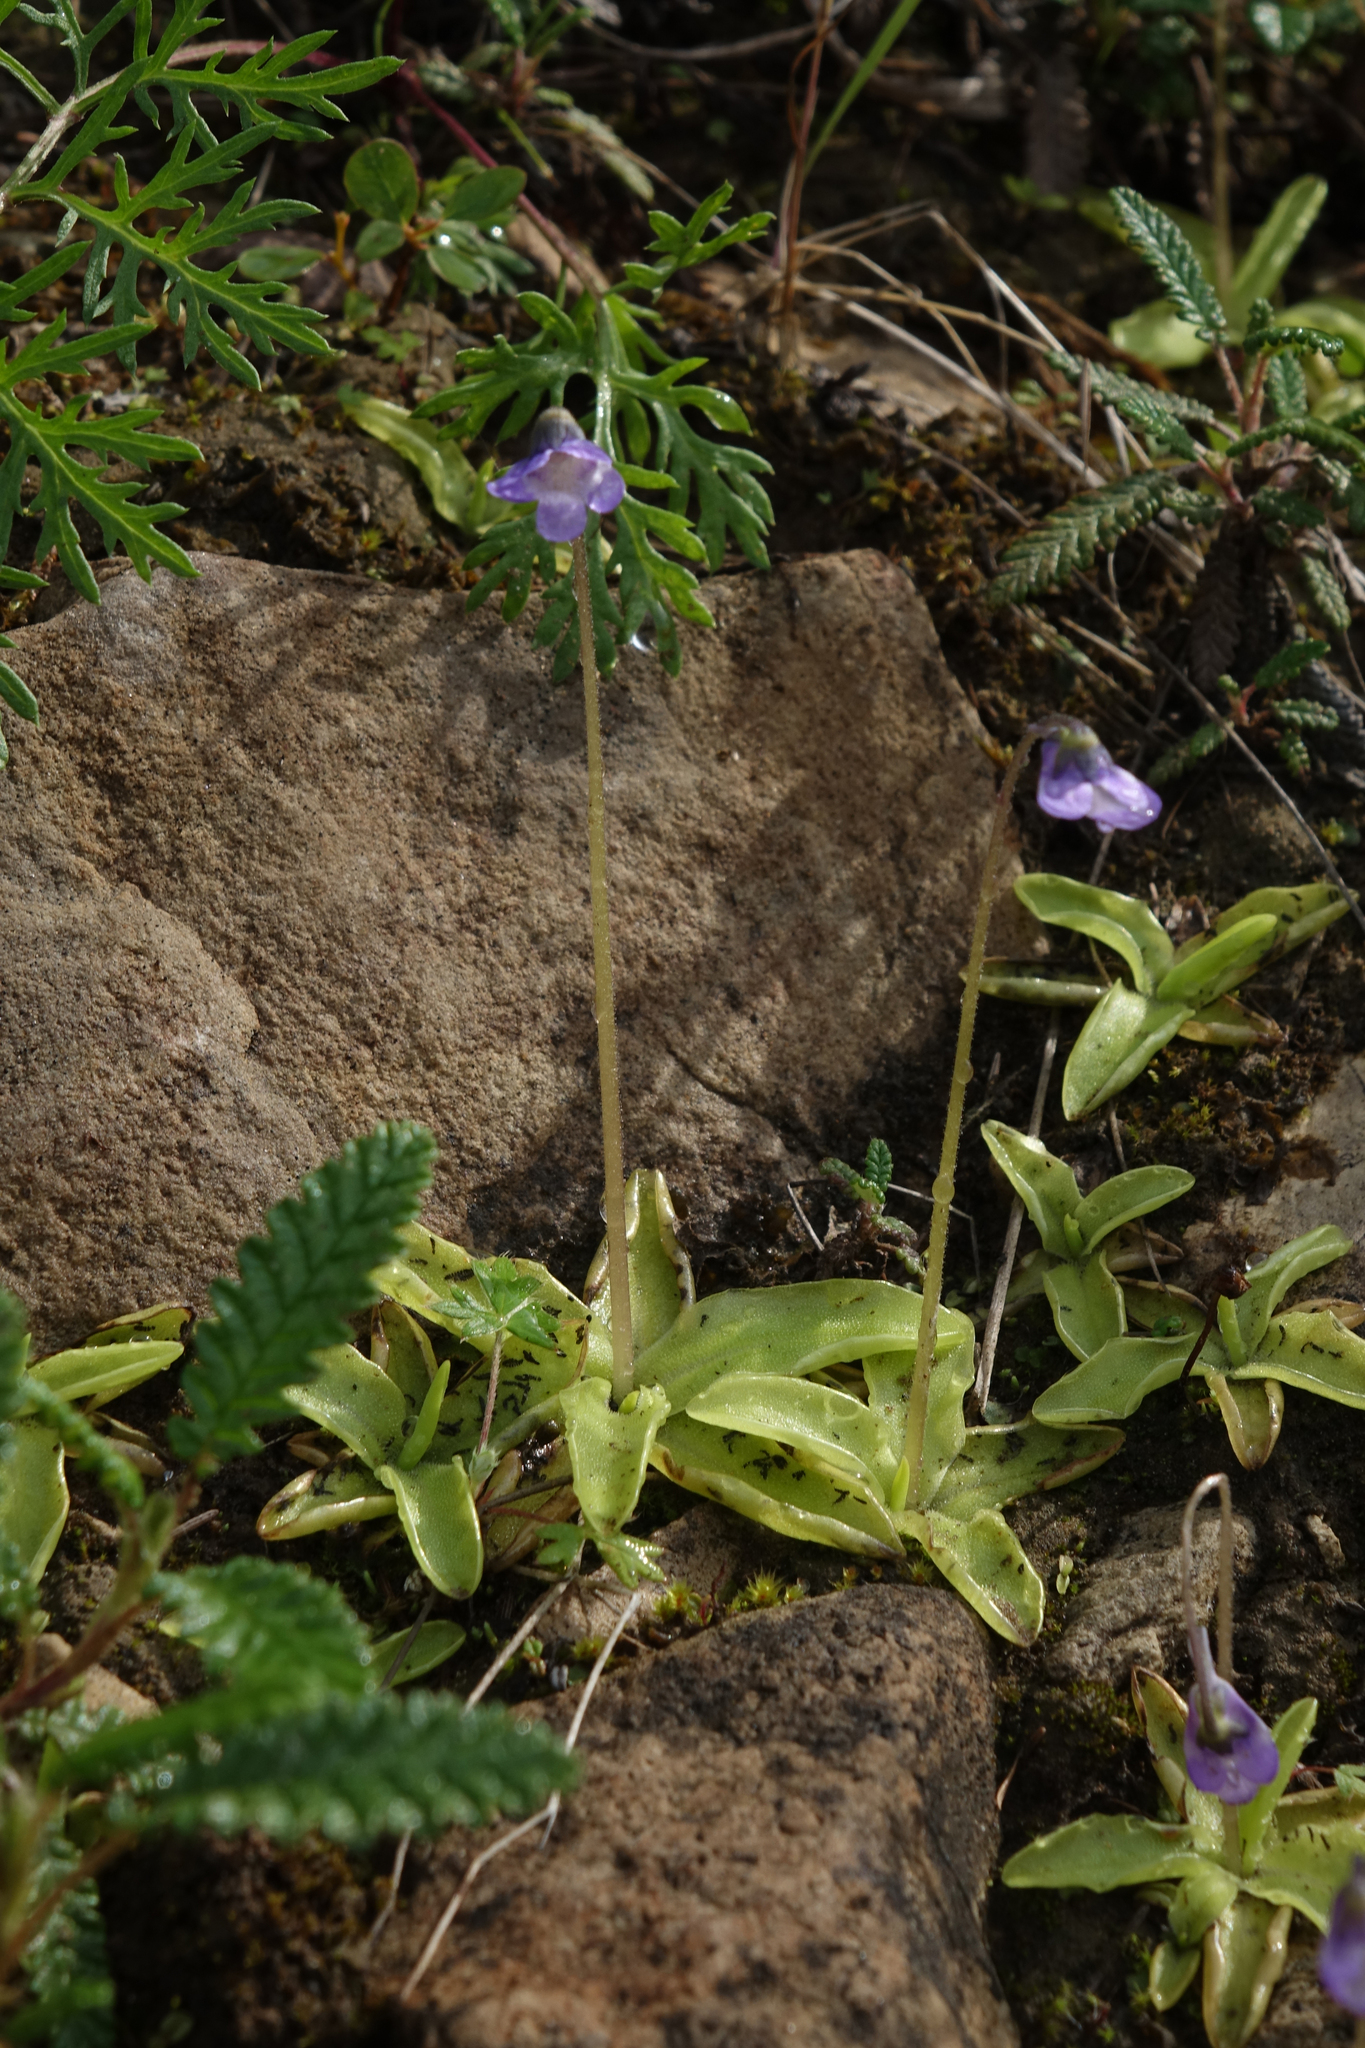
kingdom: Plantae
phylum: Tracheophyta
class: Magnoliopsida
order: Lamiales
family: Lentibulariaceae
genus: Pinguicula
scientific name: Pinguicula vulgaris
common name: Common butterwort
